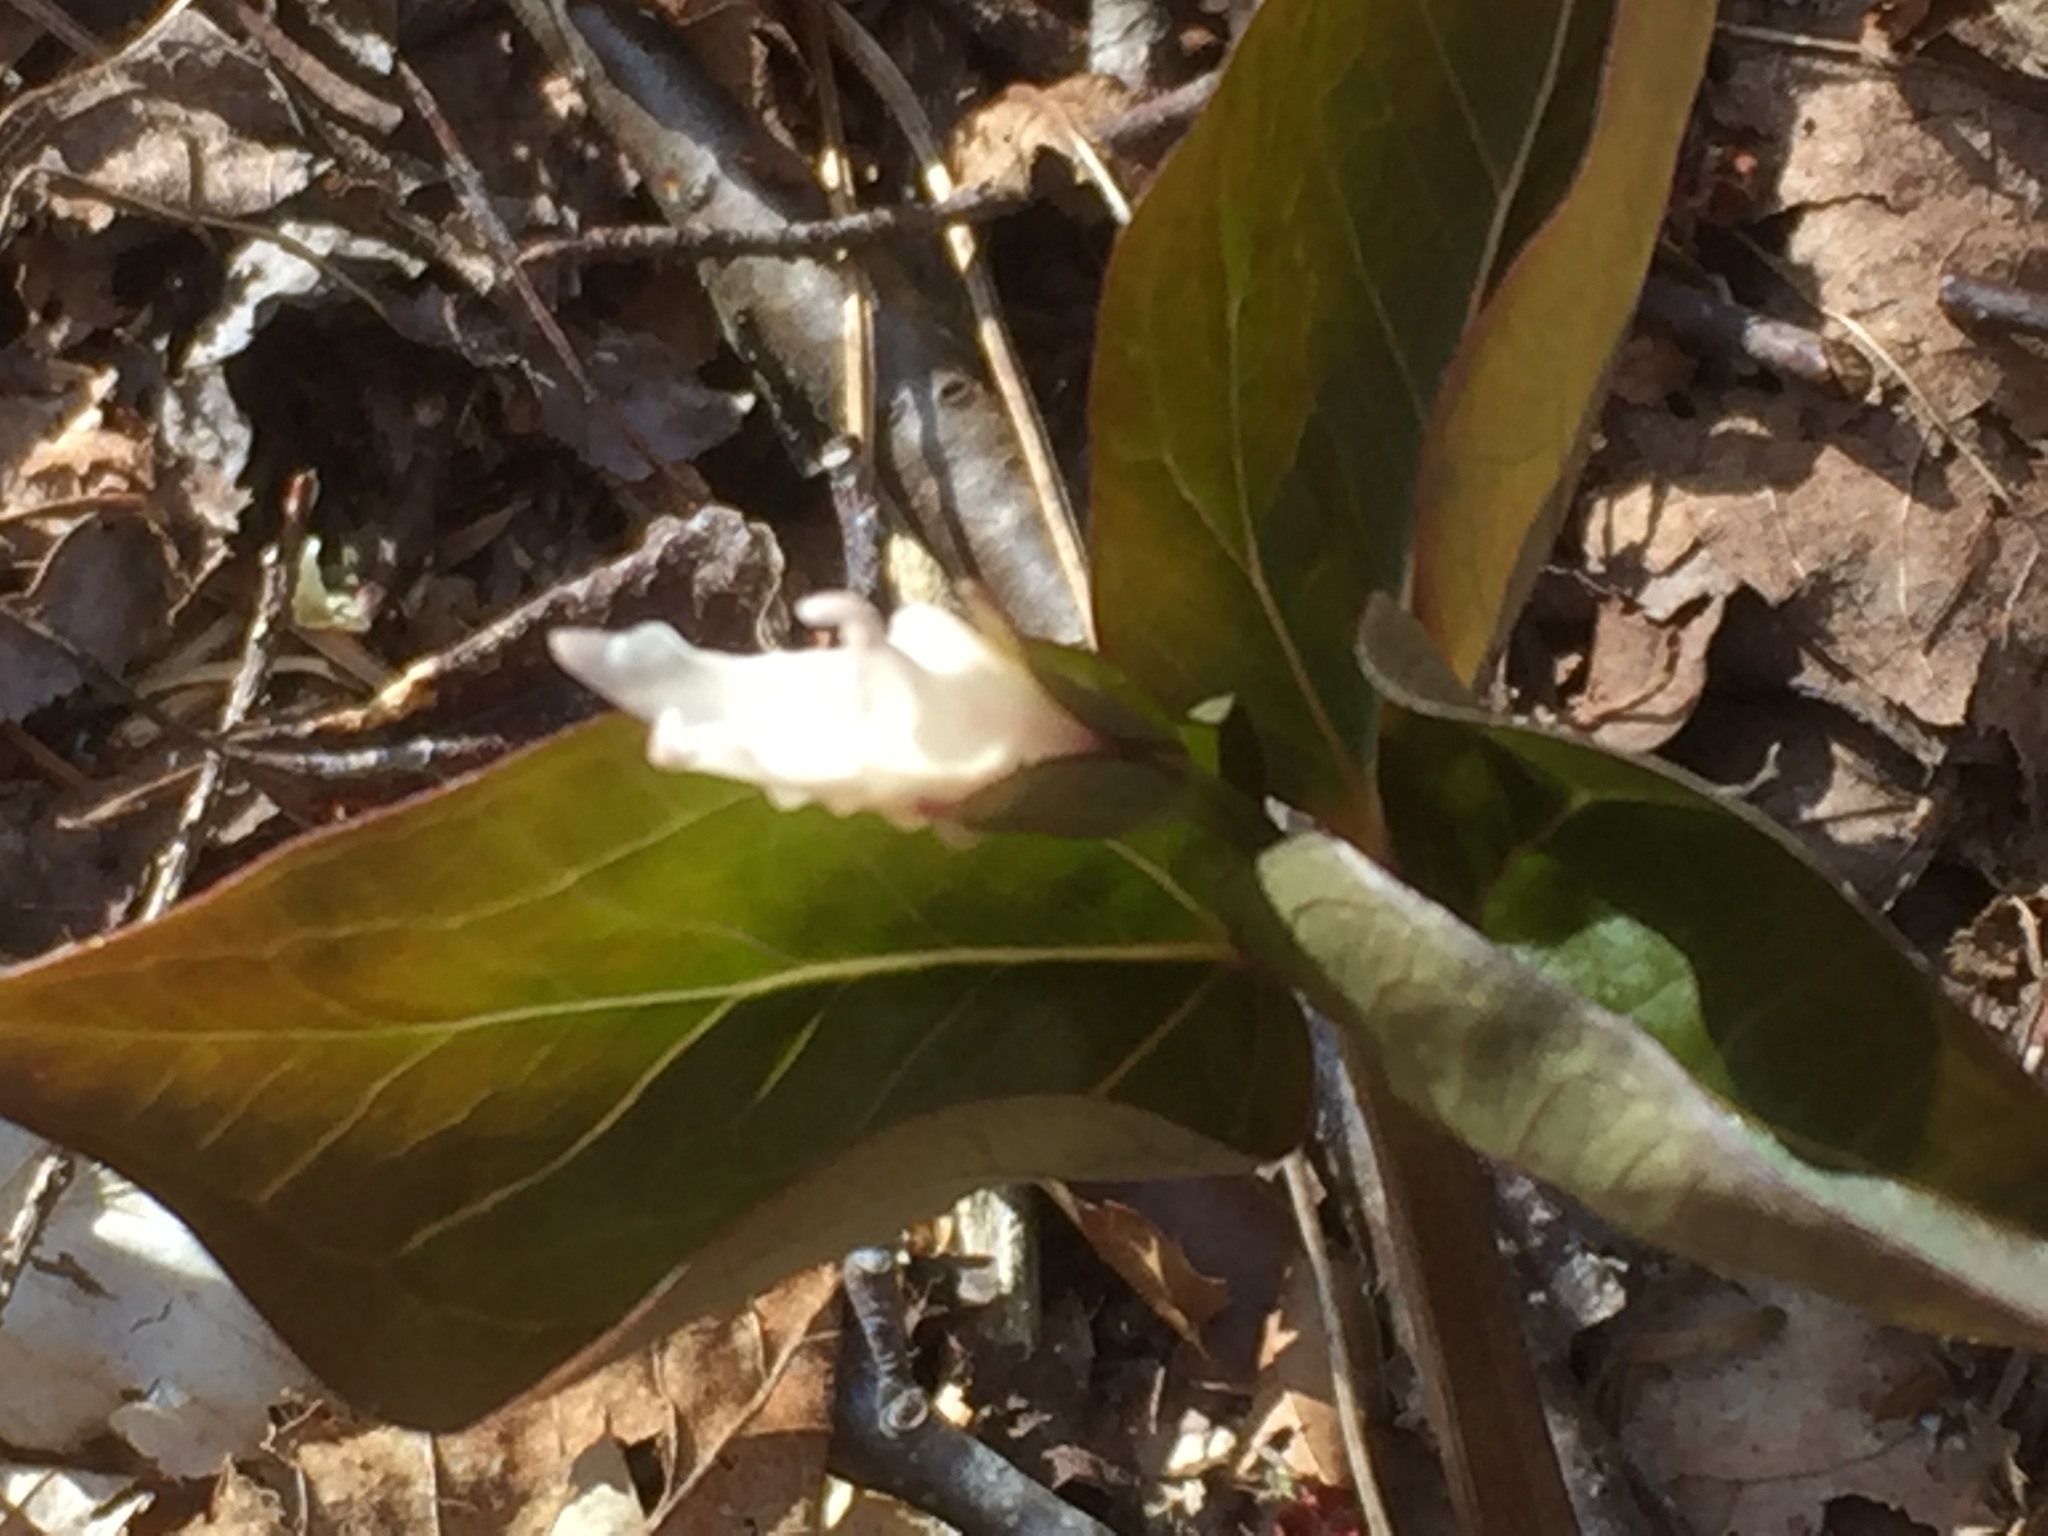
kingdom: Plantae
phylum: Tracheophyta
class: Liliopsida
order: Liliales
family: Melanthiaceae
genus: Trillium
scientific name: Trillium undulatum
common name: Paint trillium
